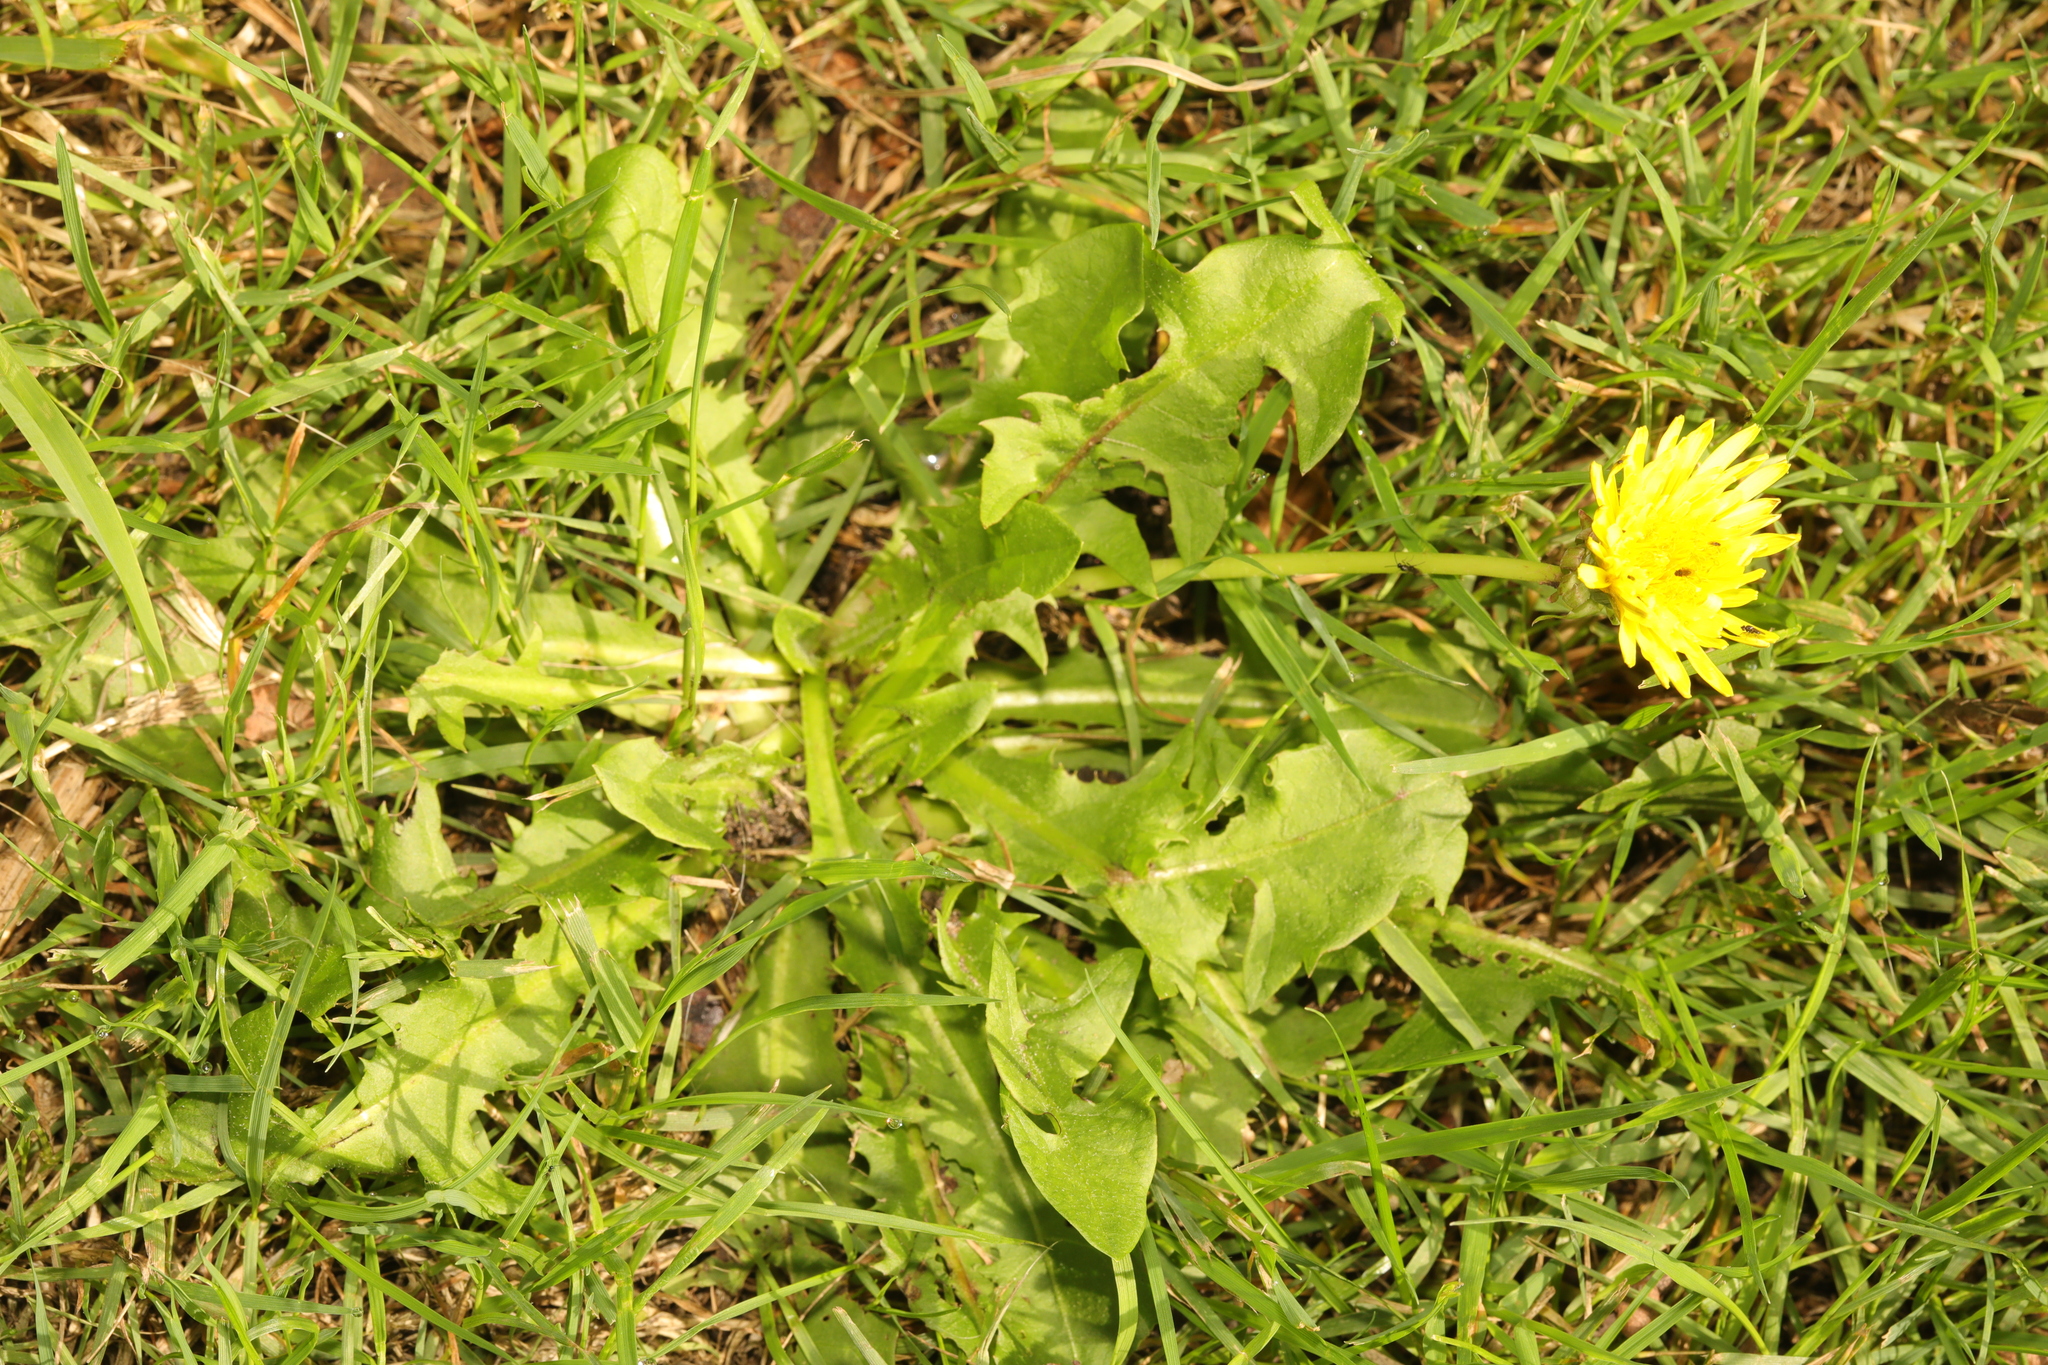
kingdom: Plantae
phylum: Tracheophyta
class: Magnoliopsida
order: Asterales
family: Asteraceae
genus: Taraxacum
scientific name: Taraxacum officinale
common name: Common dandelion
